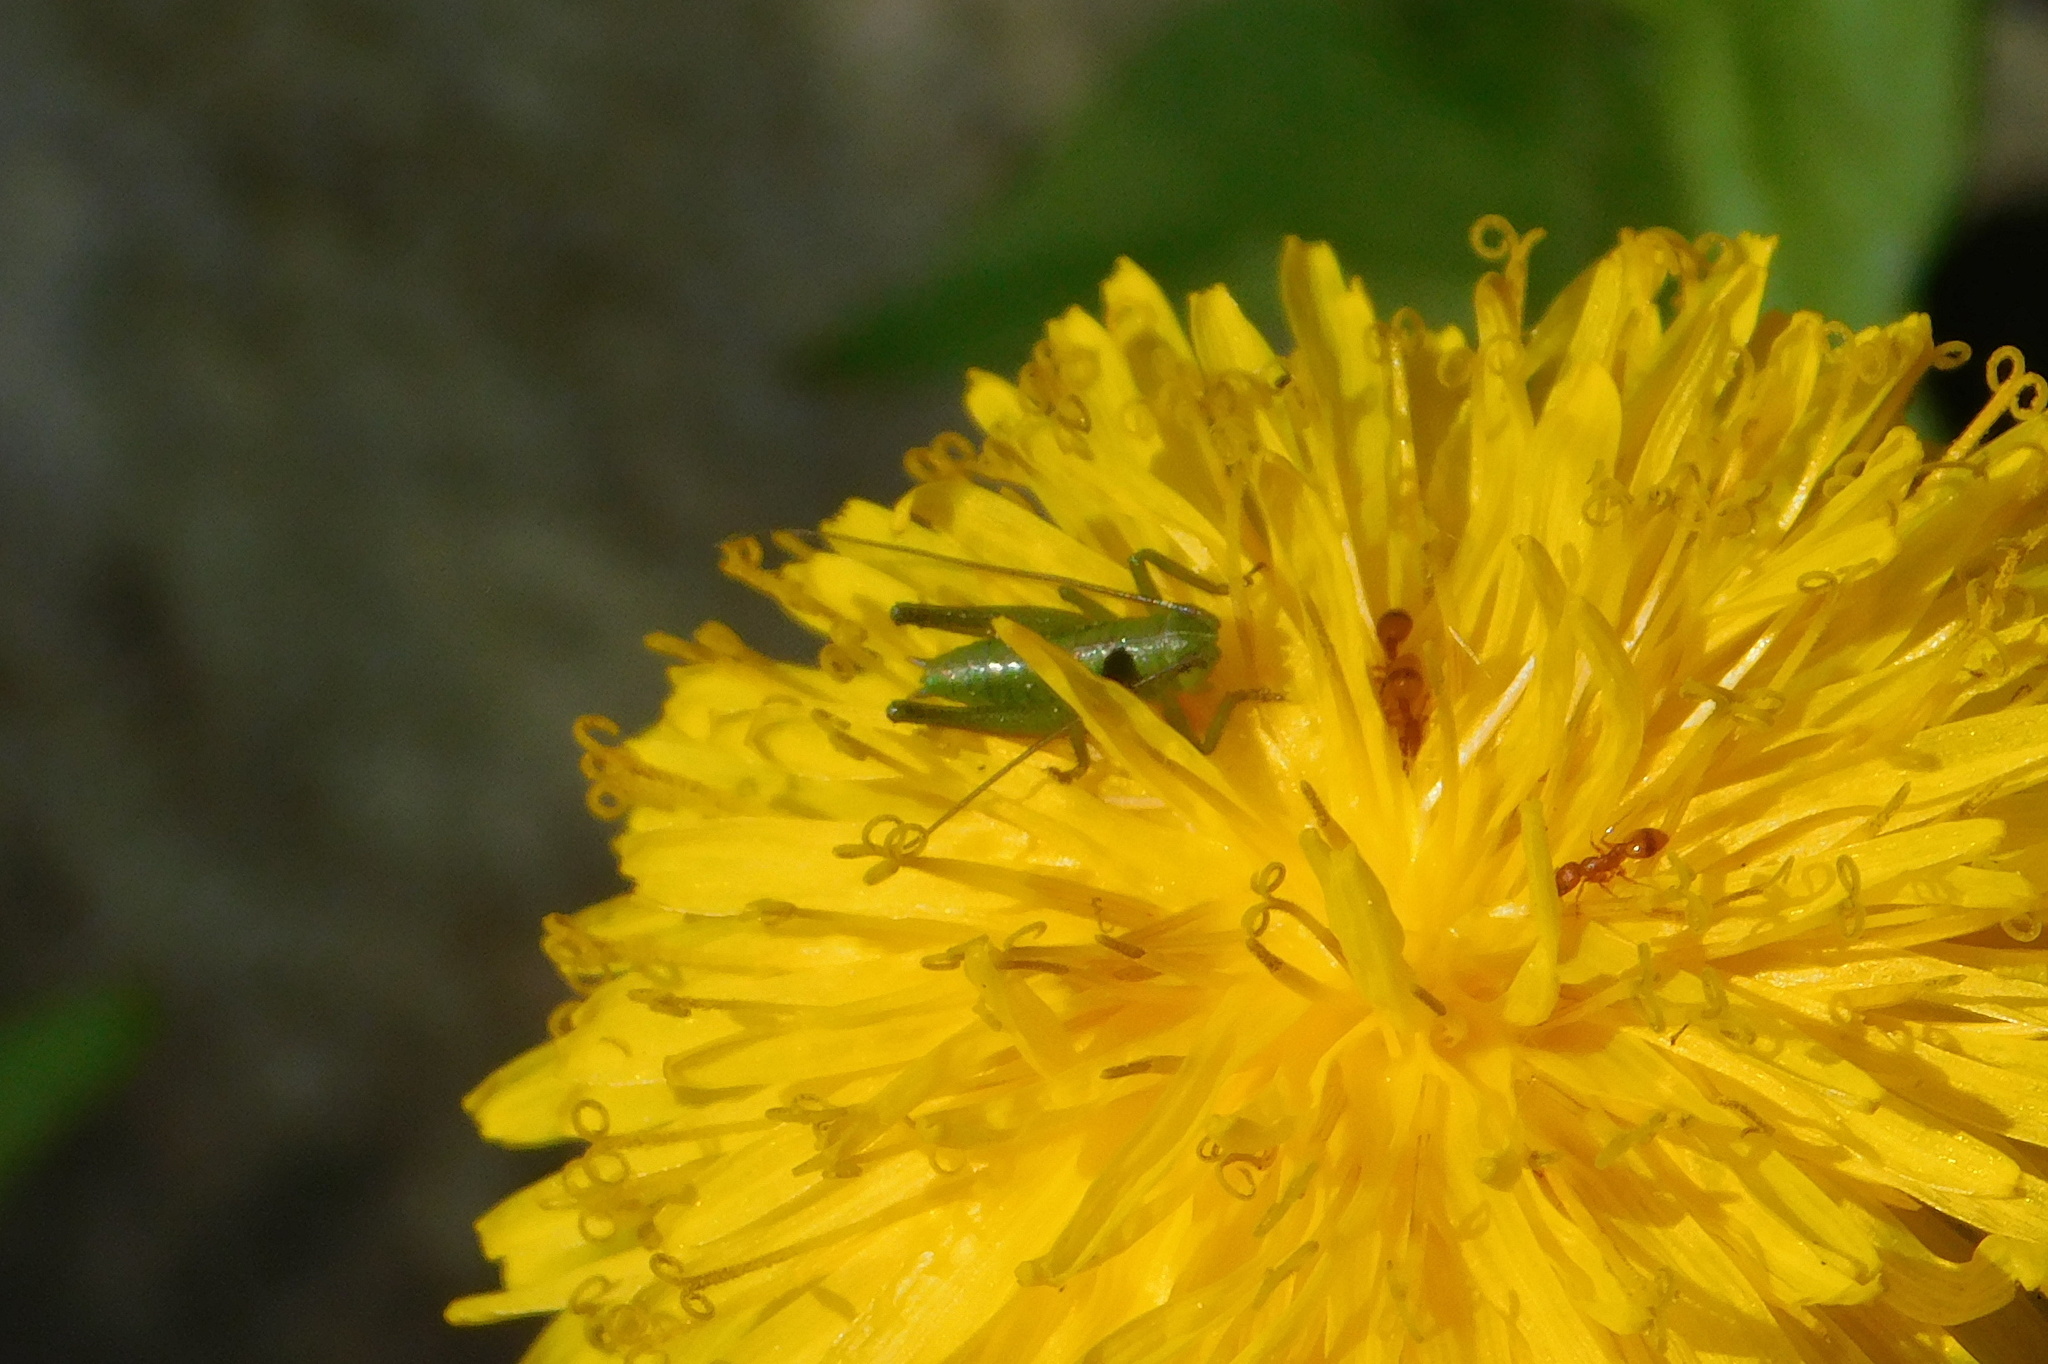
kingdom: Animalia
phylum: Arthropoda
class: Insecta
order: Orthoptera
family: Tettigoniidae
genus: Tettigonia
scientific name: Tettigonia viridissima
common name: Great green bush-cricket
